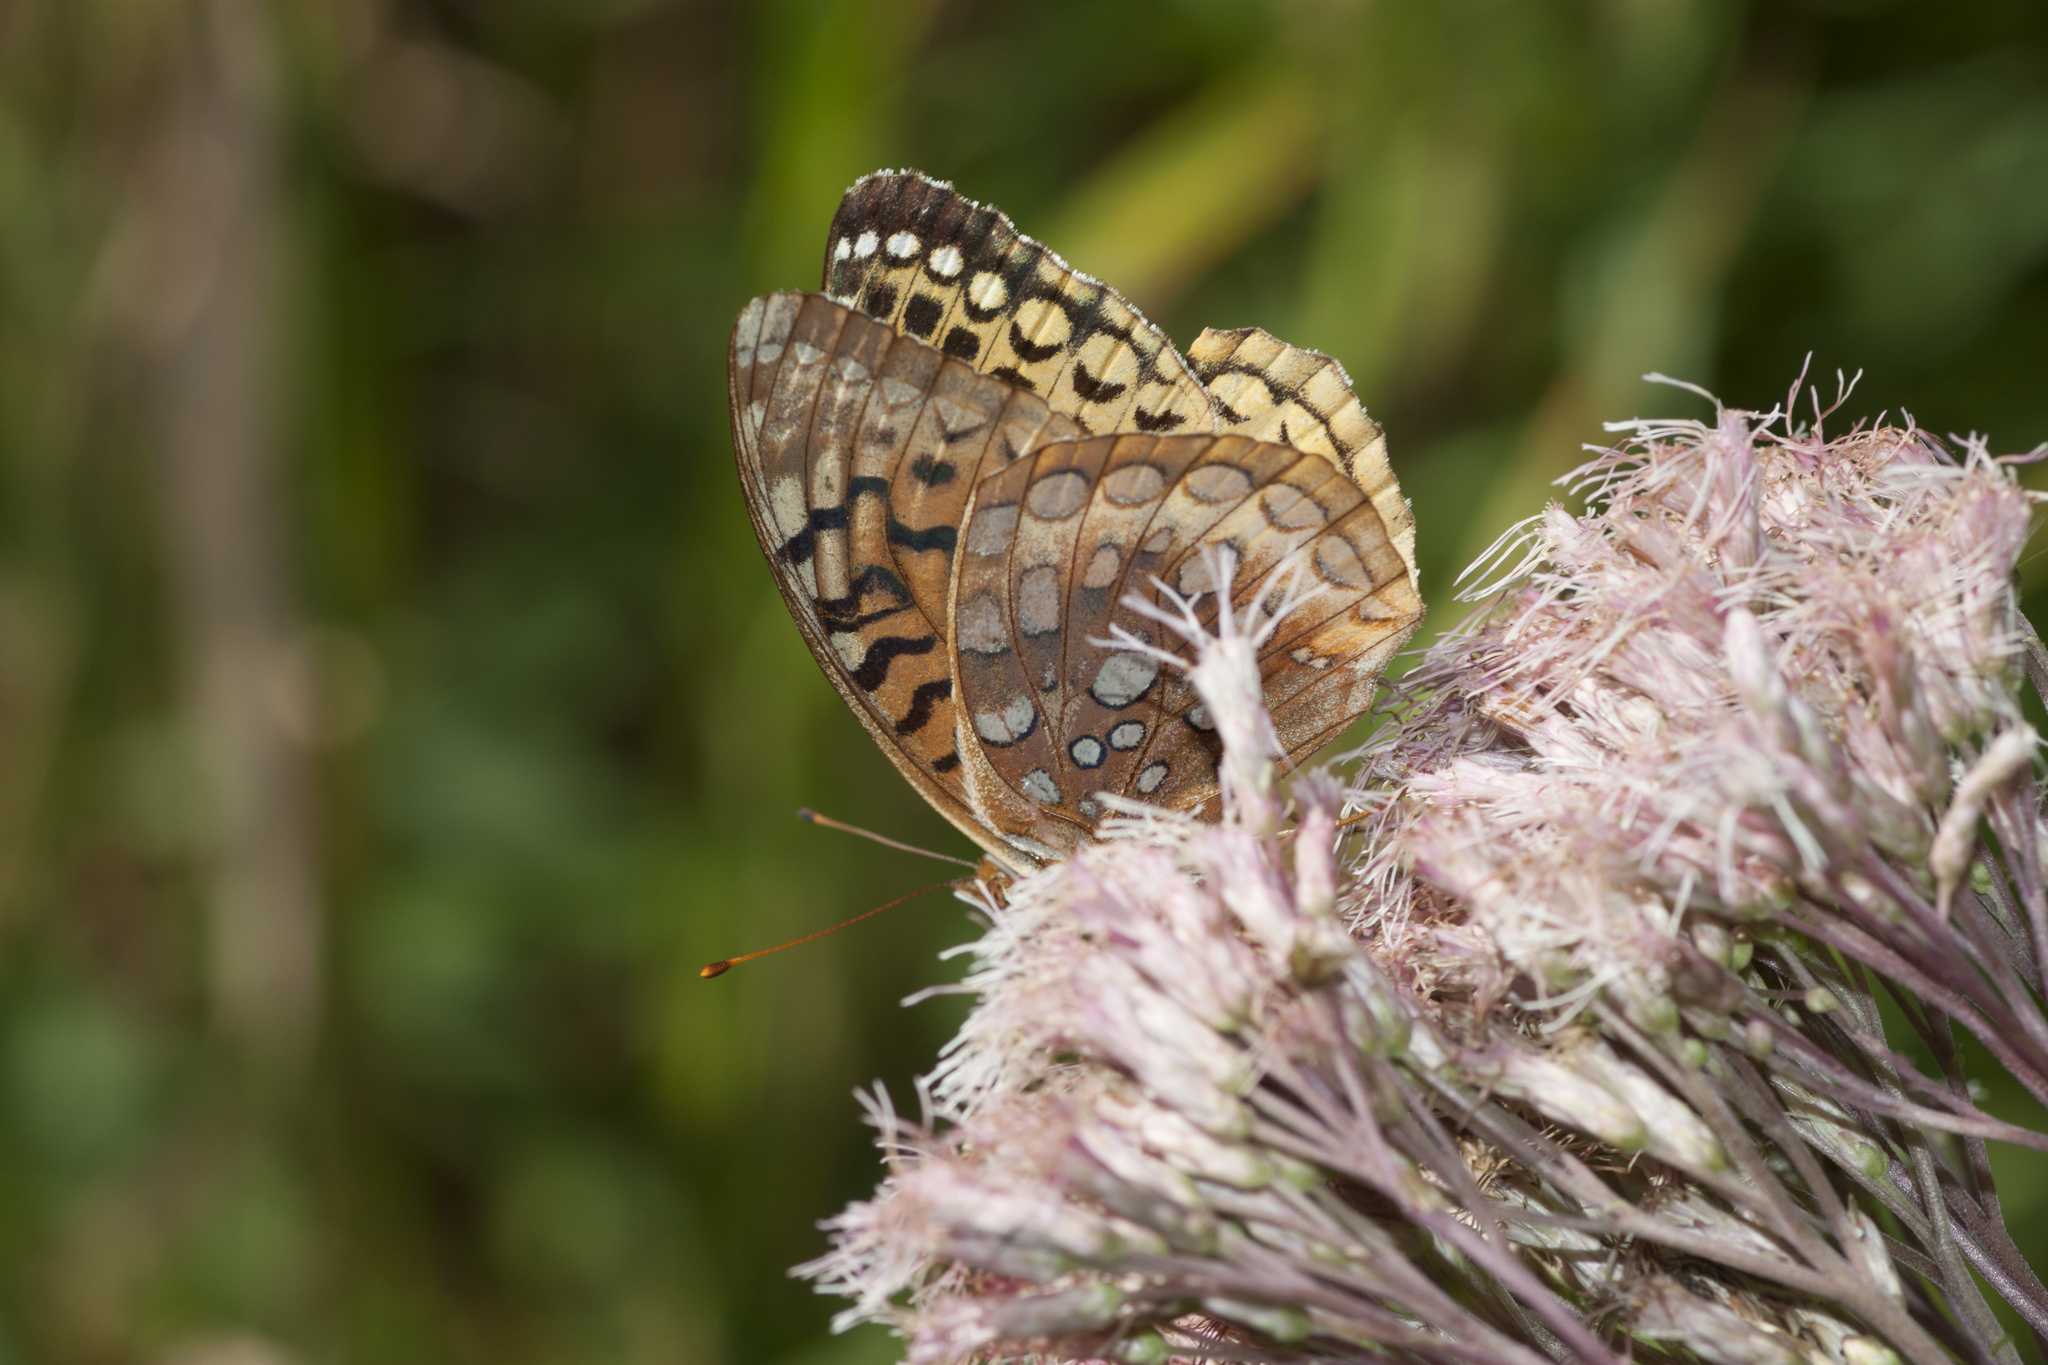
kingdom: Animalia
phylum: Arthropoda
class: Insecta
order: Lepidoptera
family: Nymphalidae
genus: Speyeria
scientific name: Speyeria cybele
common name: Great spangled fritillary
